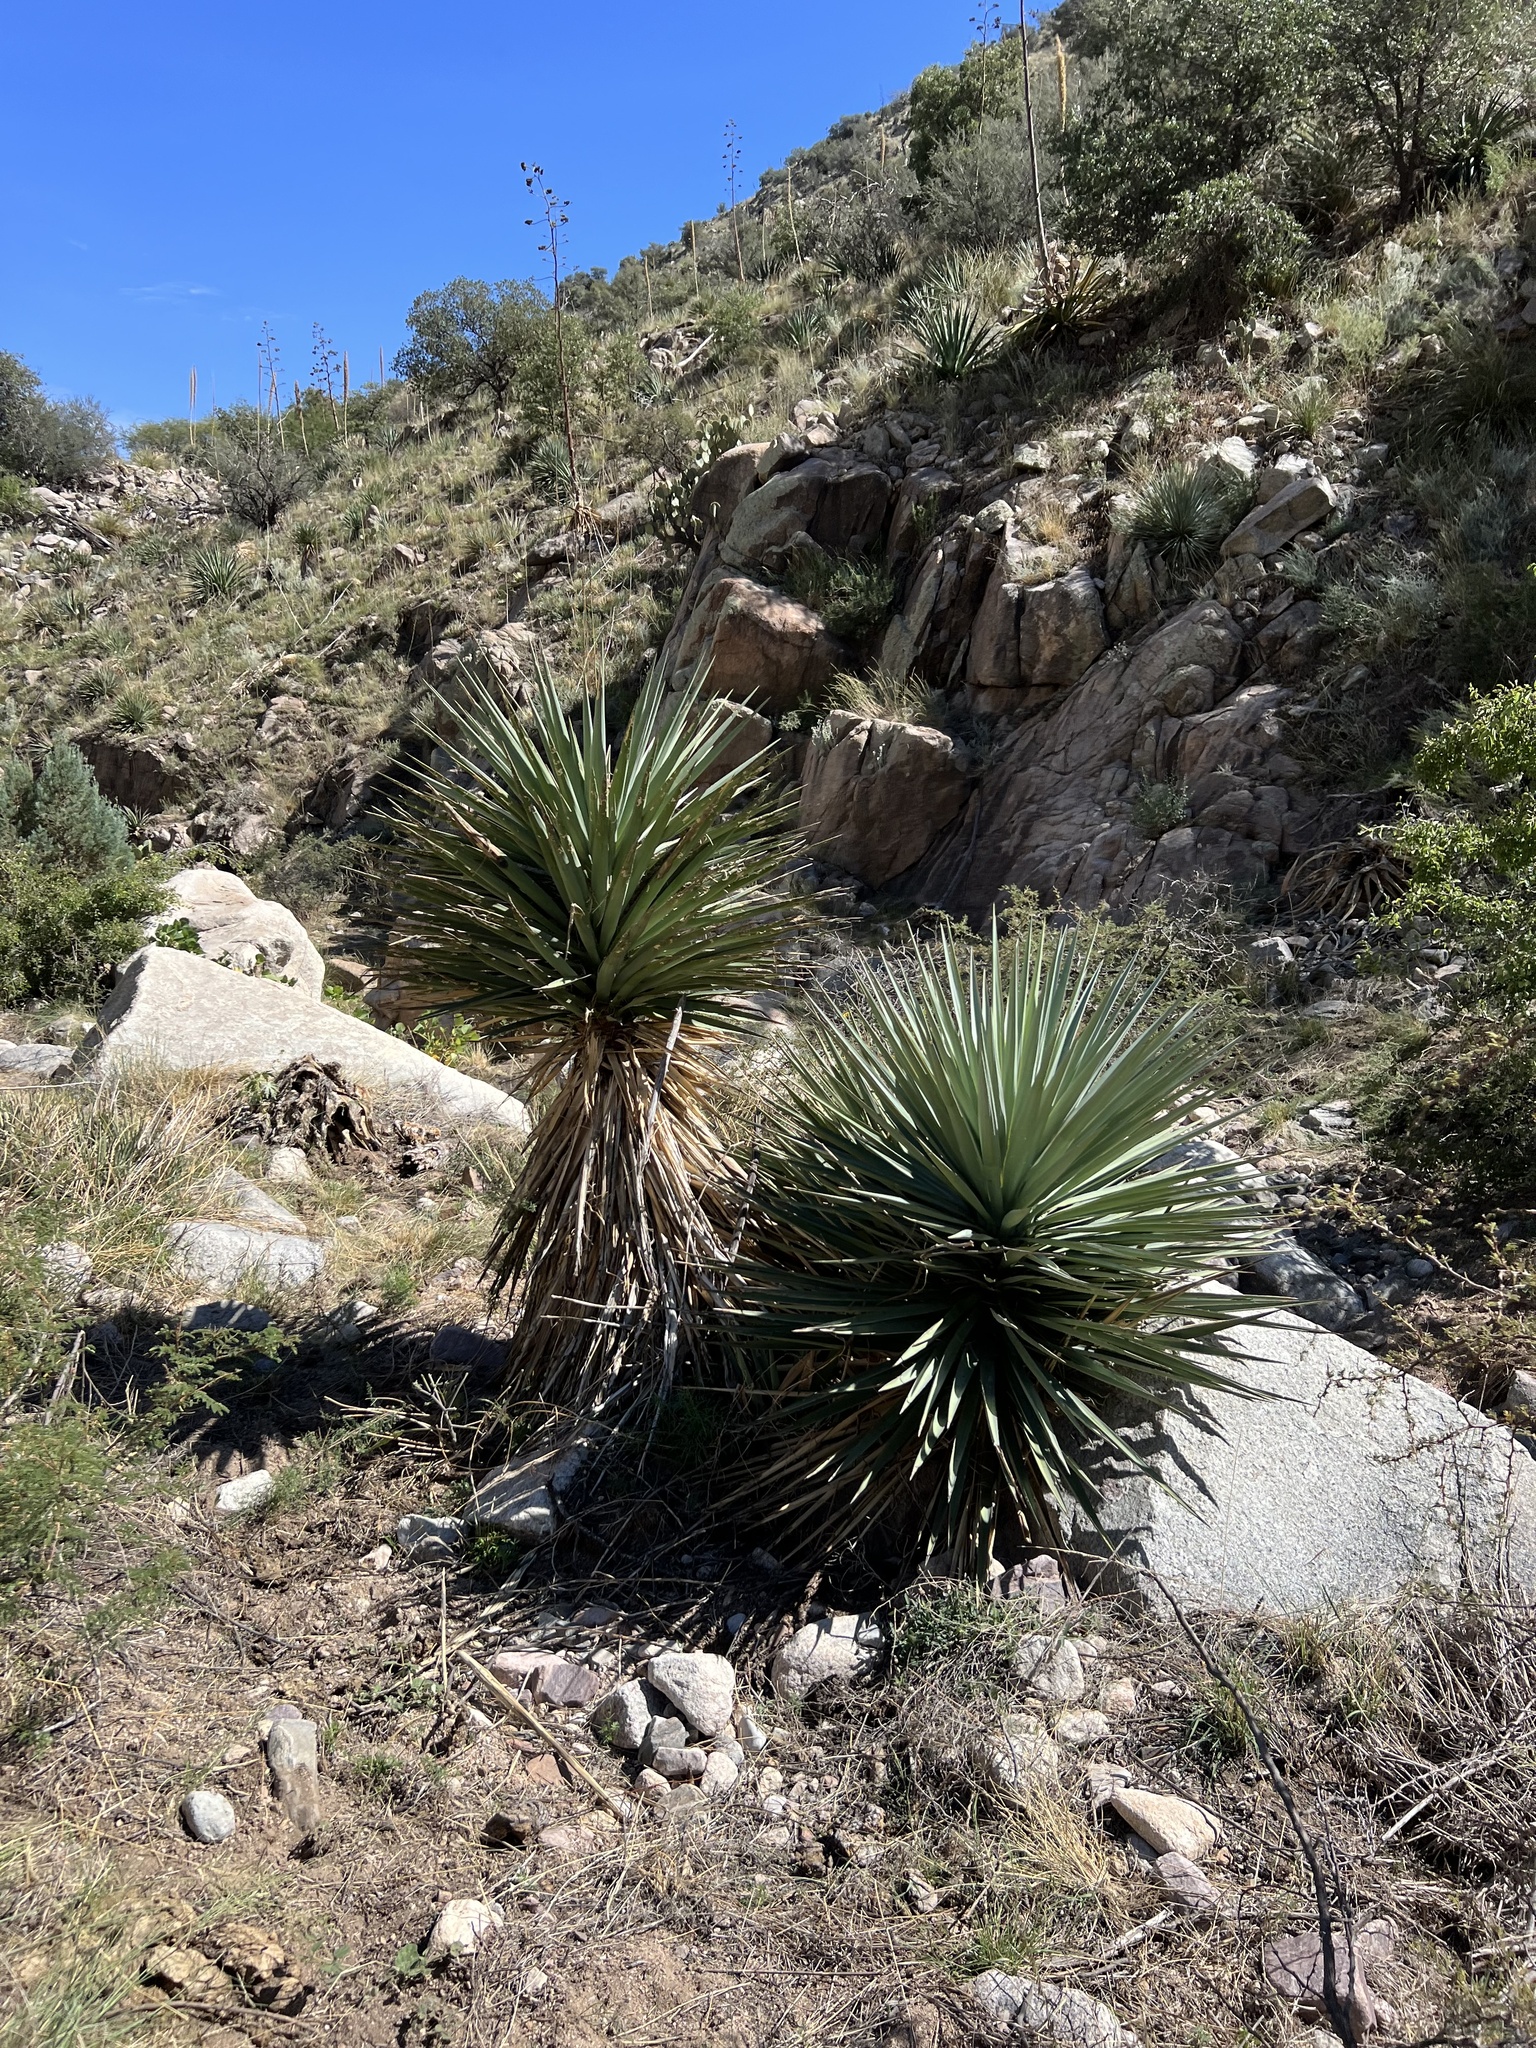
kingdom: Plantae
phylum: Tracheophyta
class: Liliopsida
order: Asparagales
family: Asparagaceae
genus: Yucca
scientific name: Yucca schottii
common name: Hoary yucca
